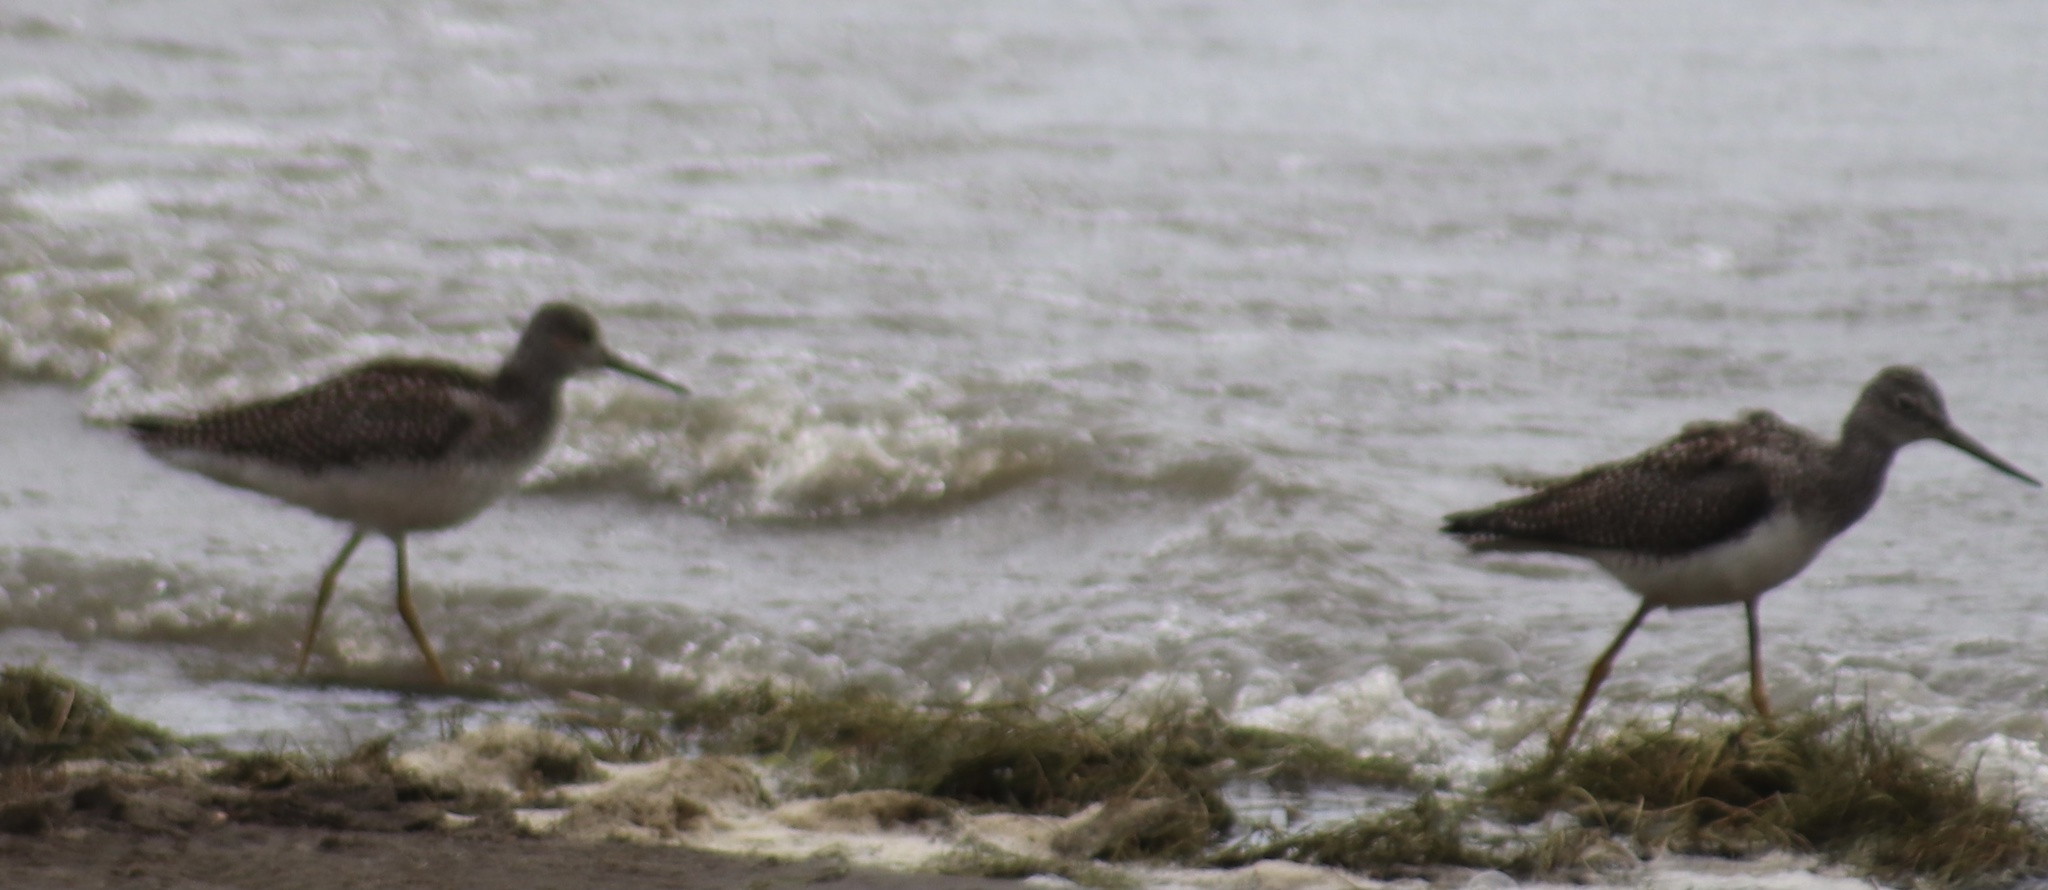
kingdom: Animalia
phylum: Chordata
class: Aves
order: Charadriiformes
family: Scolopacidae
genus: Tringa
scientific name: Tringa flavipes
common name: Lesser yellowlegs
